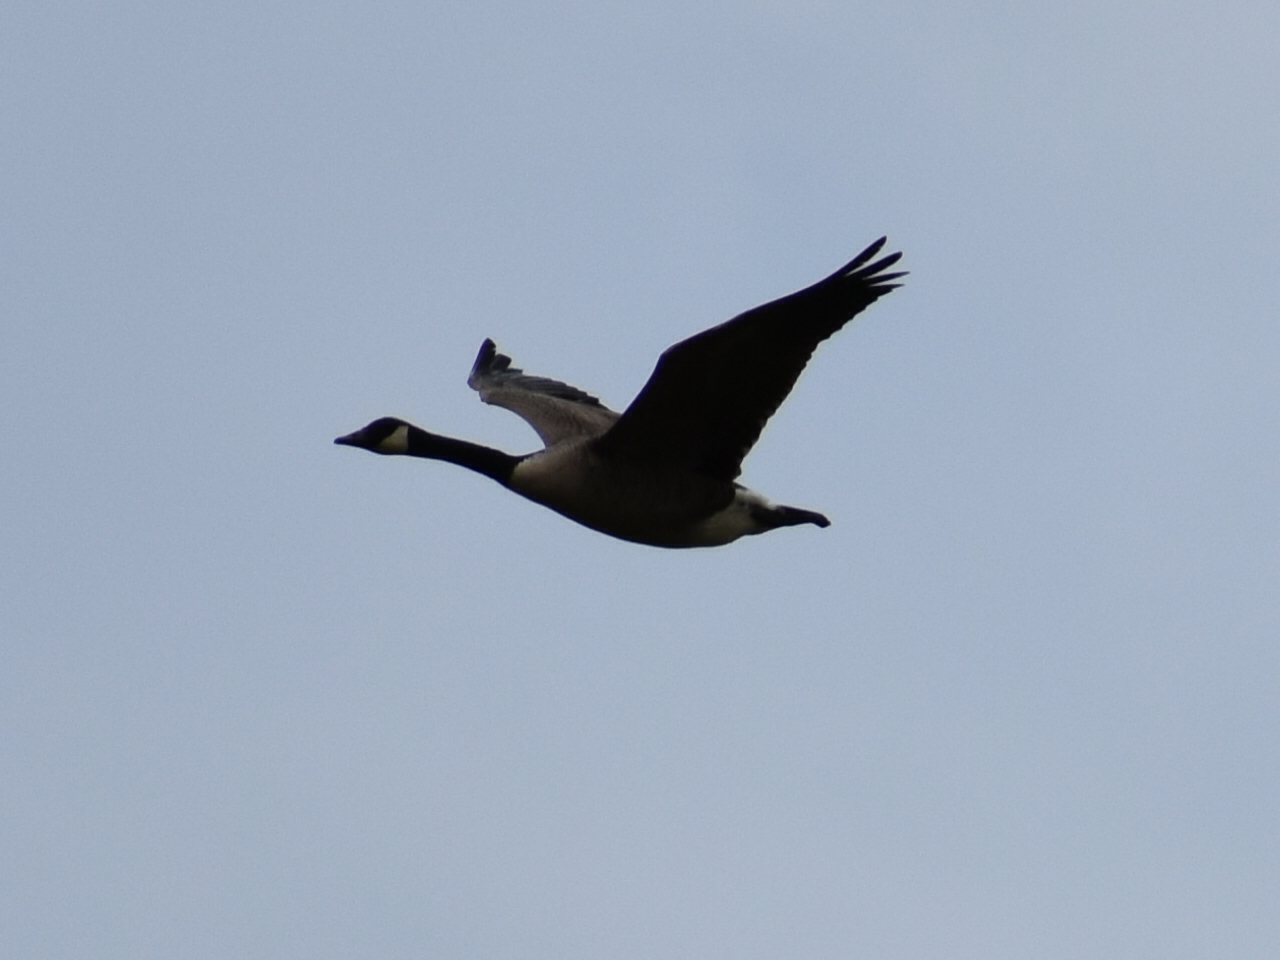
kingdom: Animalia
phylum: Chordata
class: Aves
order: Anseriformes
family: Anatidae
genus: Branta
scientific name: Branta canadensis
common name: Canada goose
